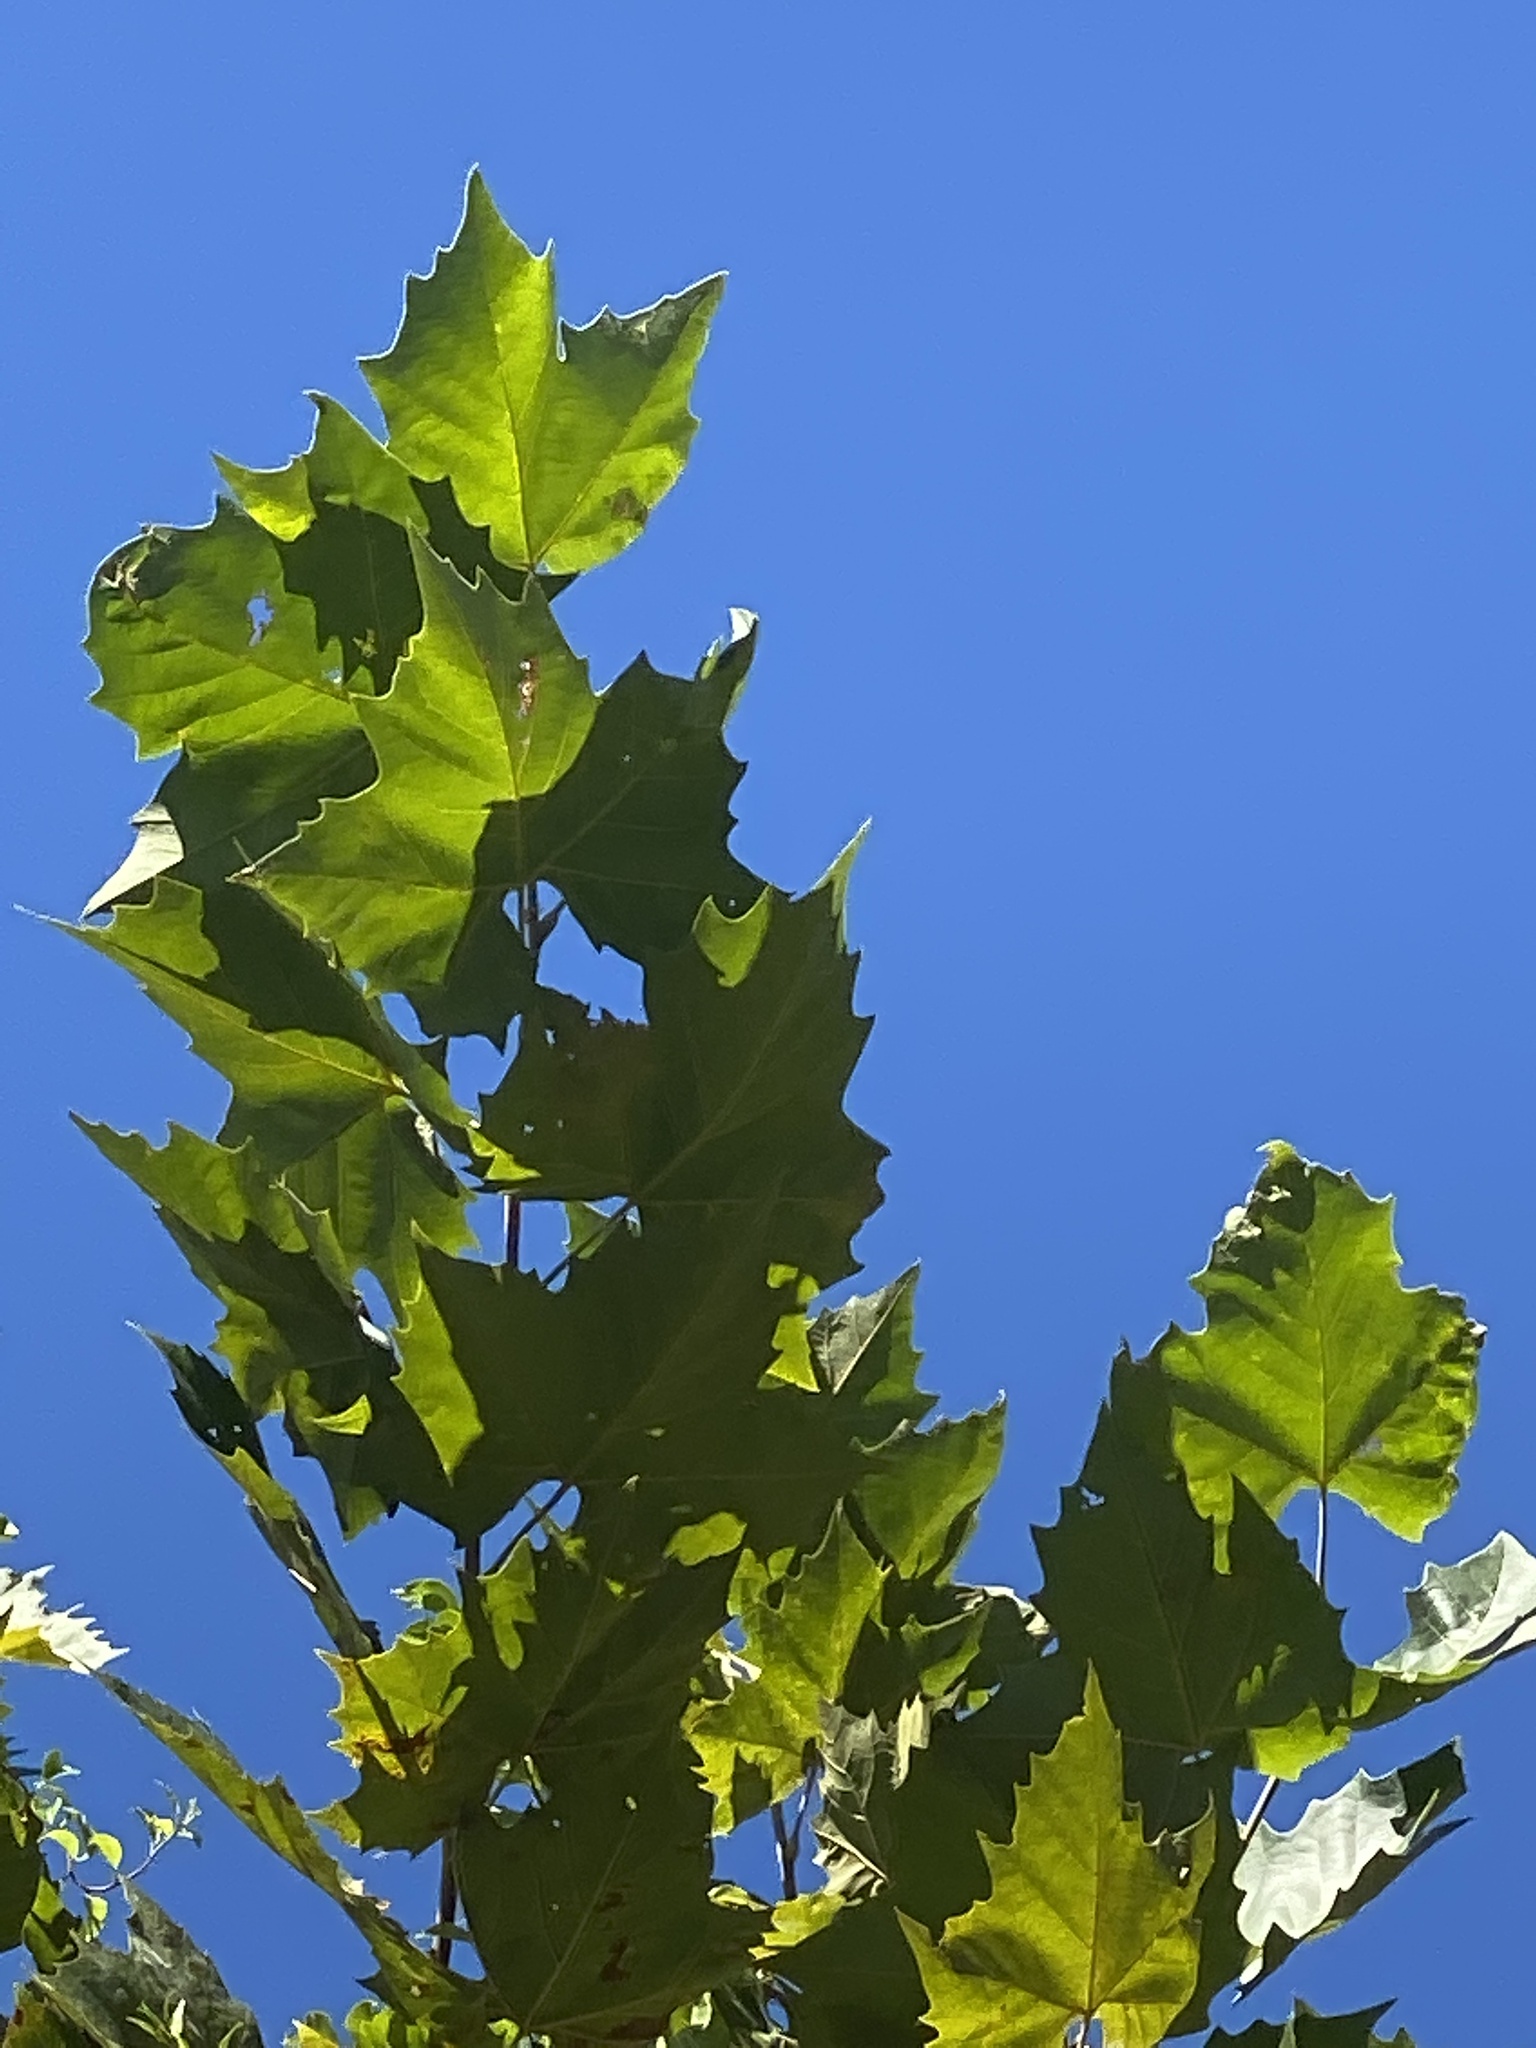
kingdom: Plantae
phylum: Tracheophyta
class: Magnoliopsida
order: Proteales
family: Platanaceae
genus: Platanus
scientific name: Platanus occidentalis
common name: American sycamore
